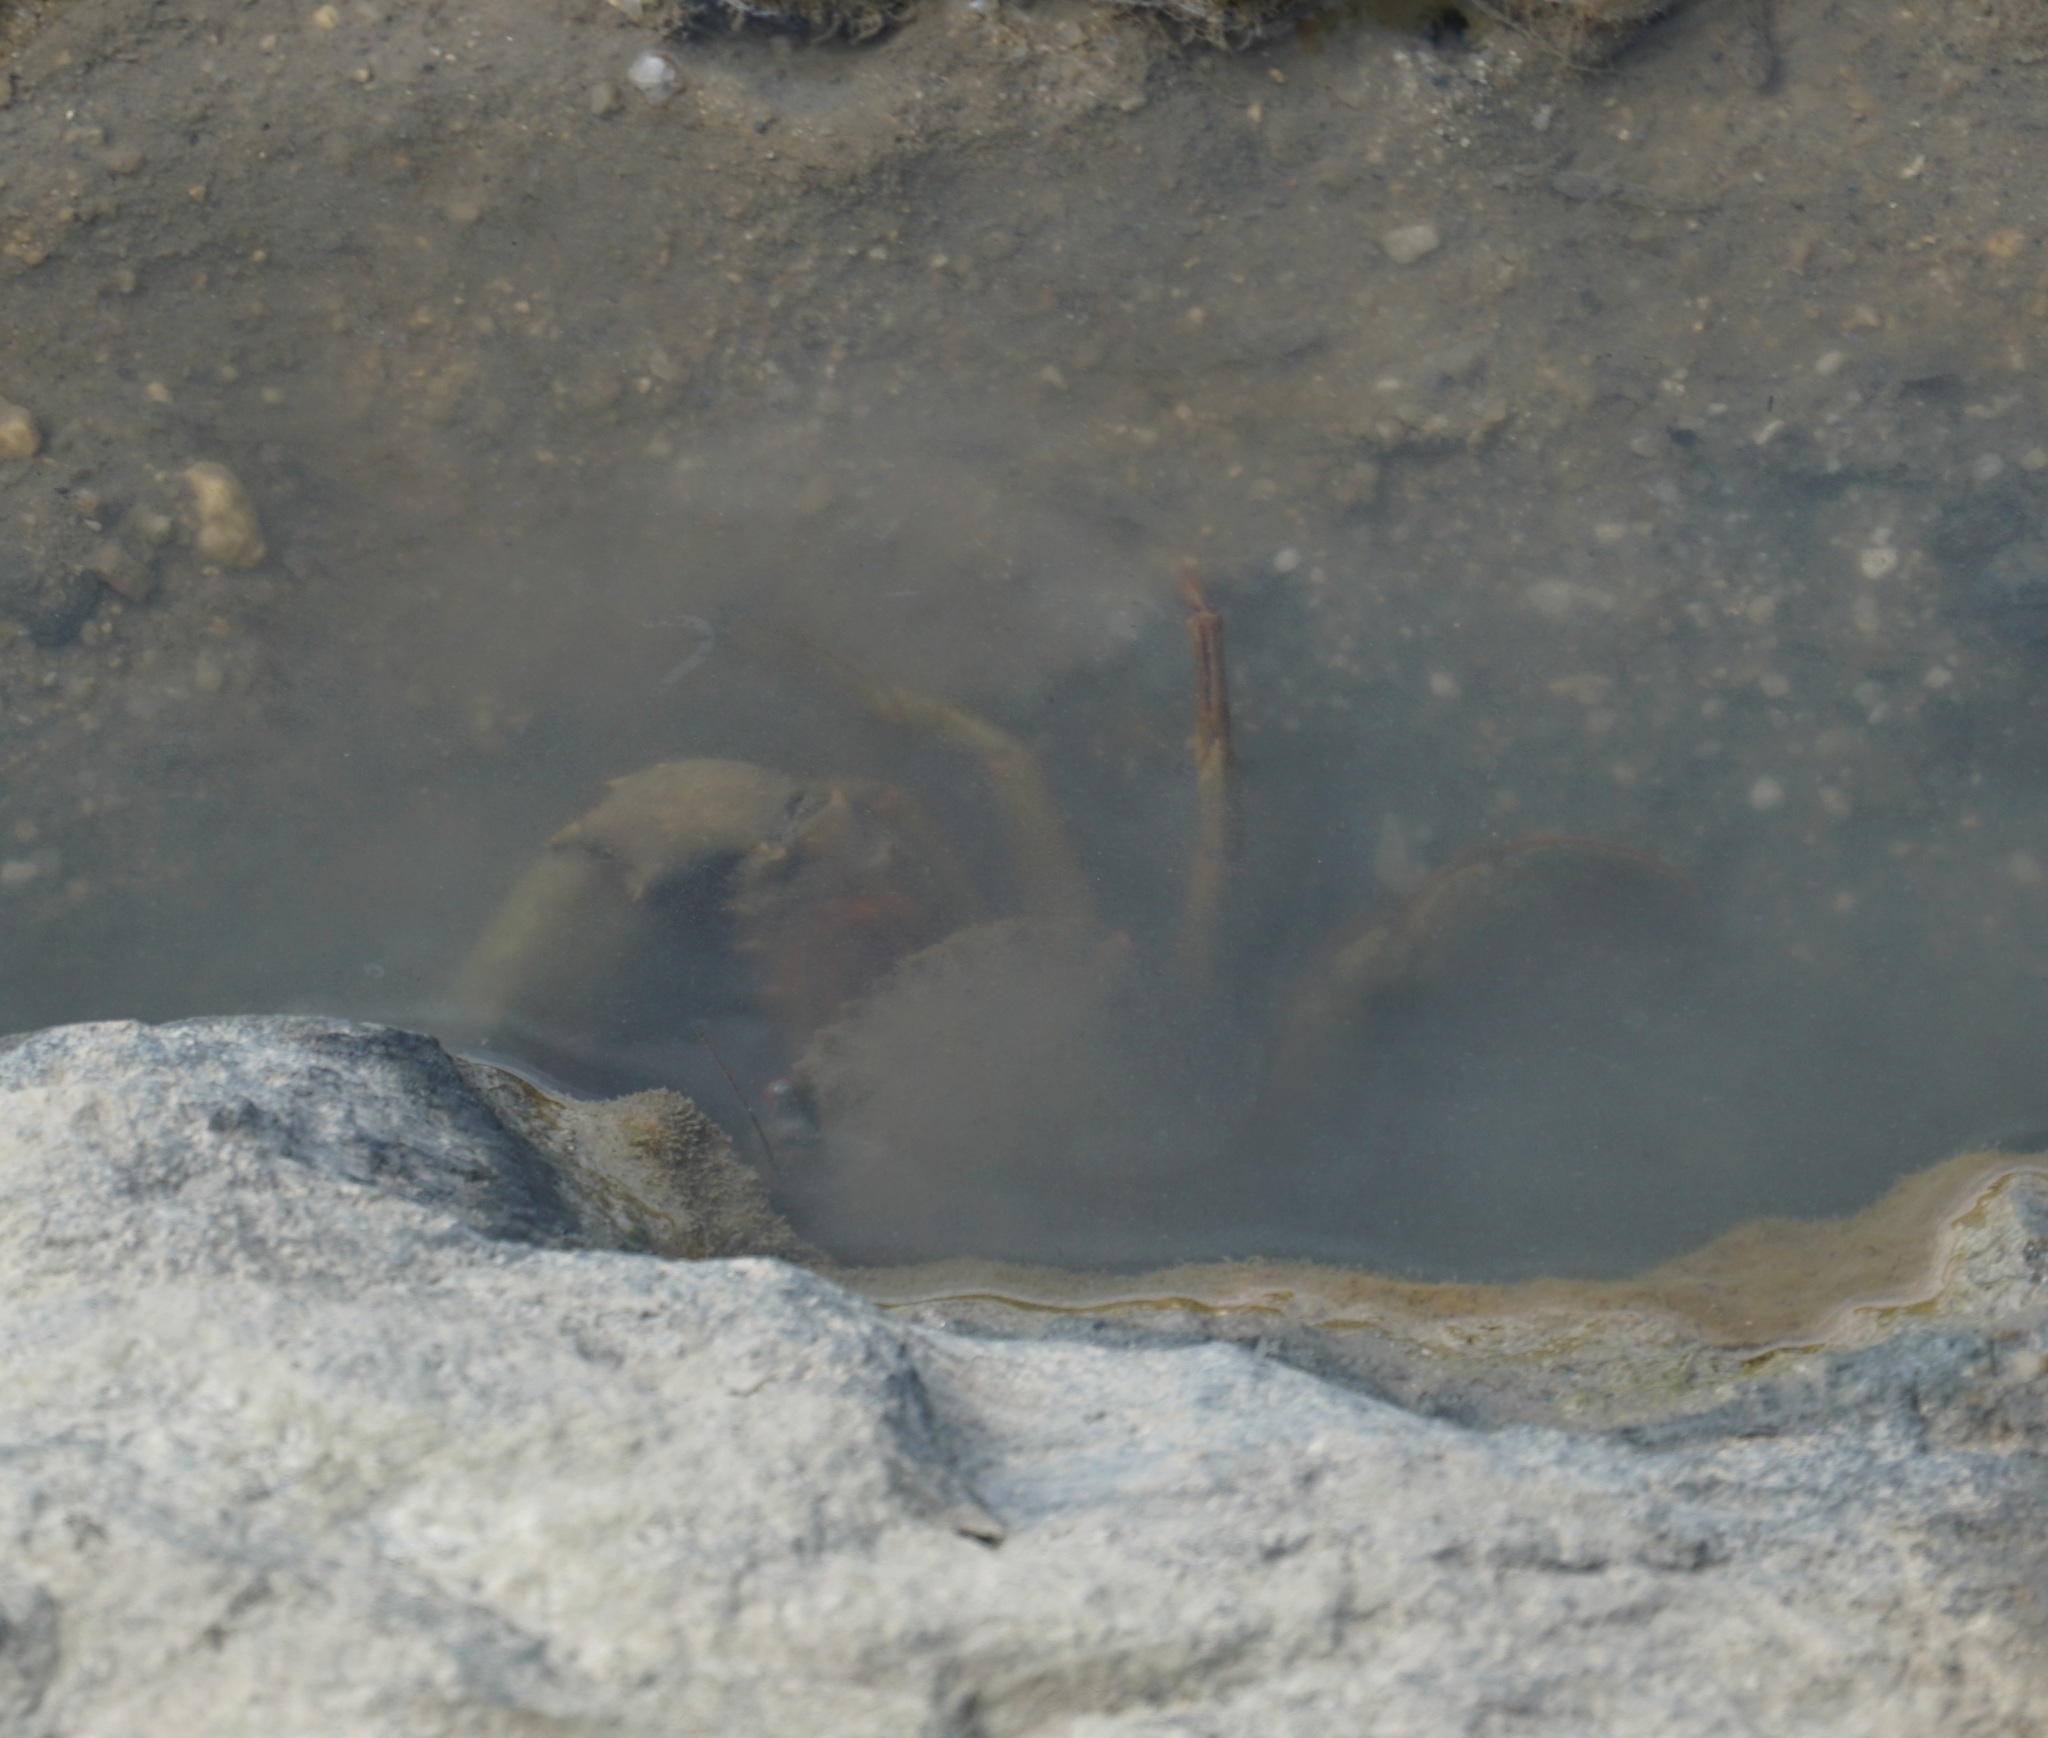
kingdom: Animalia
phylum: Arthropoda
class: Malacostraca
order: Decapoda
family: Portunidae
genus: Scylla
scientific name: Scylla serrata
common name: Giant mud crab
